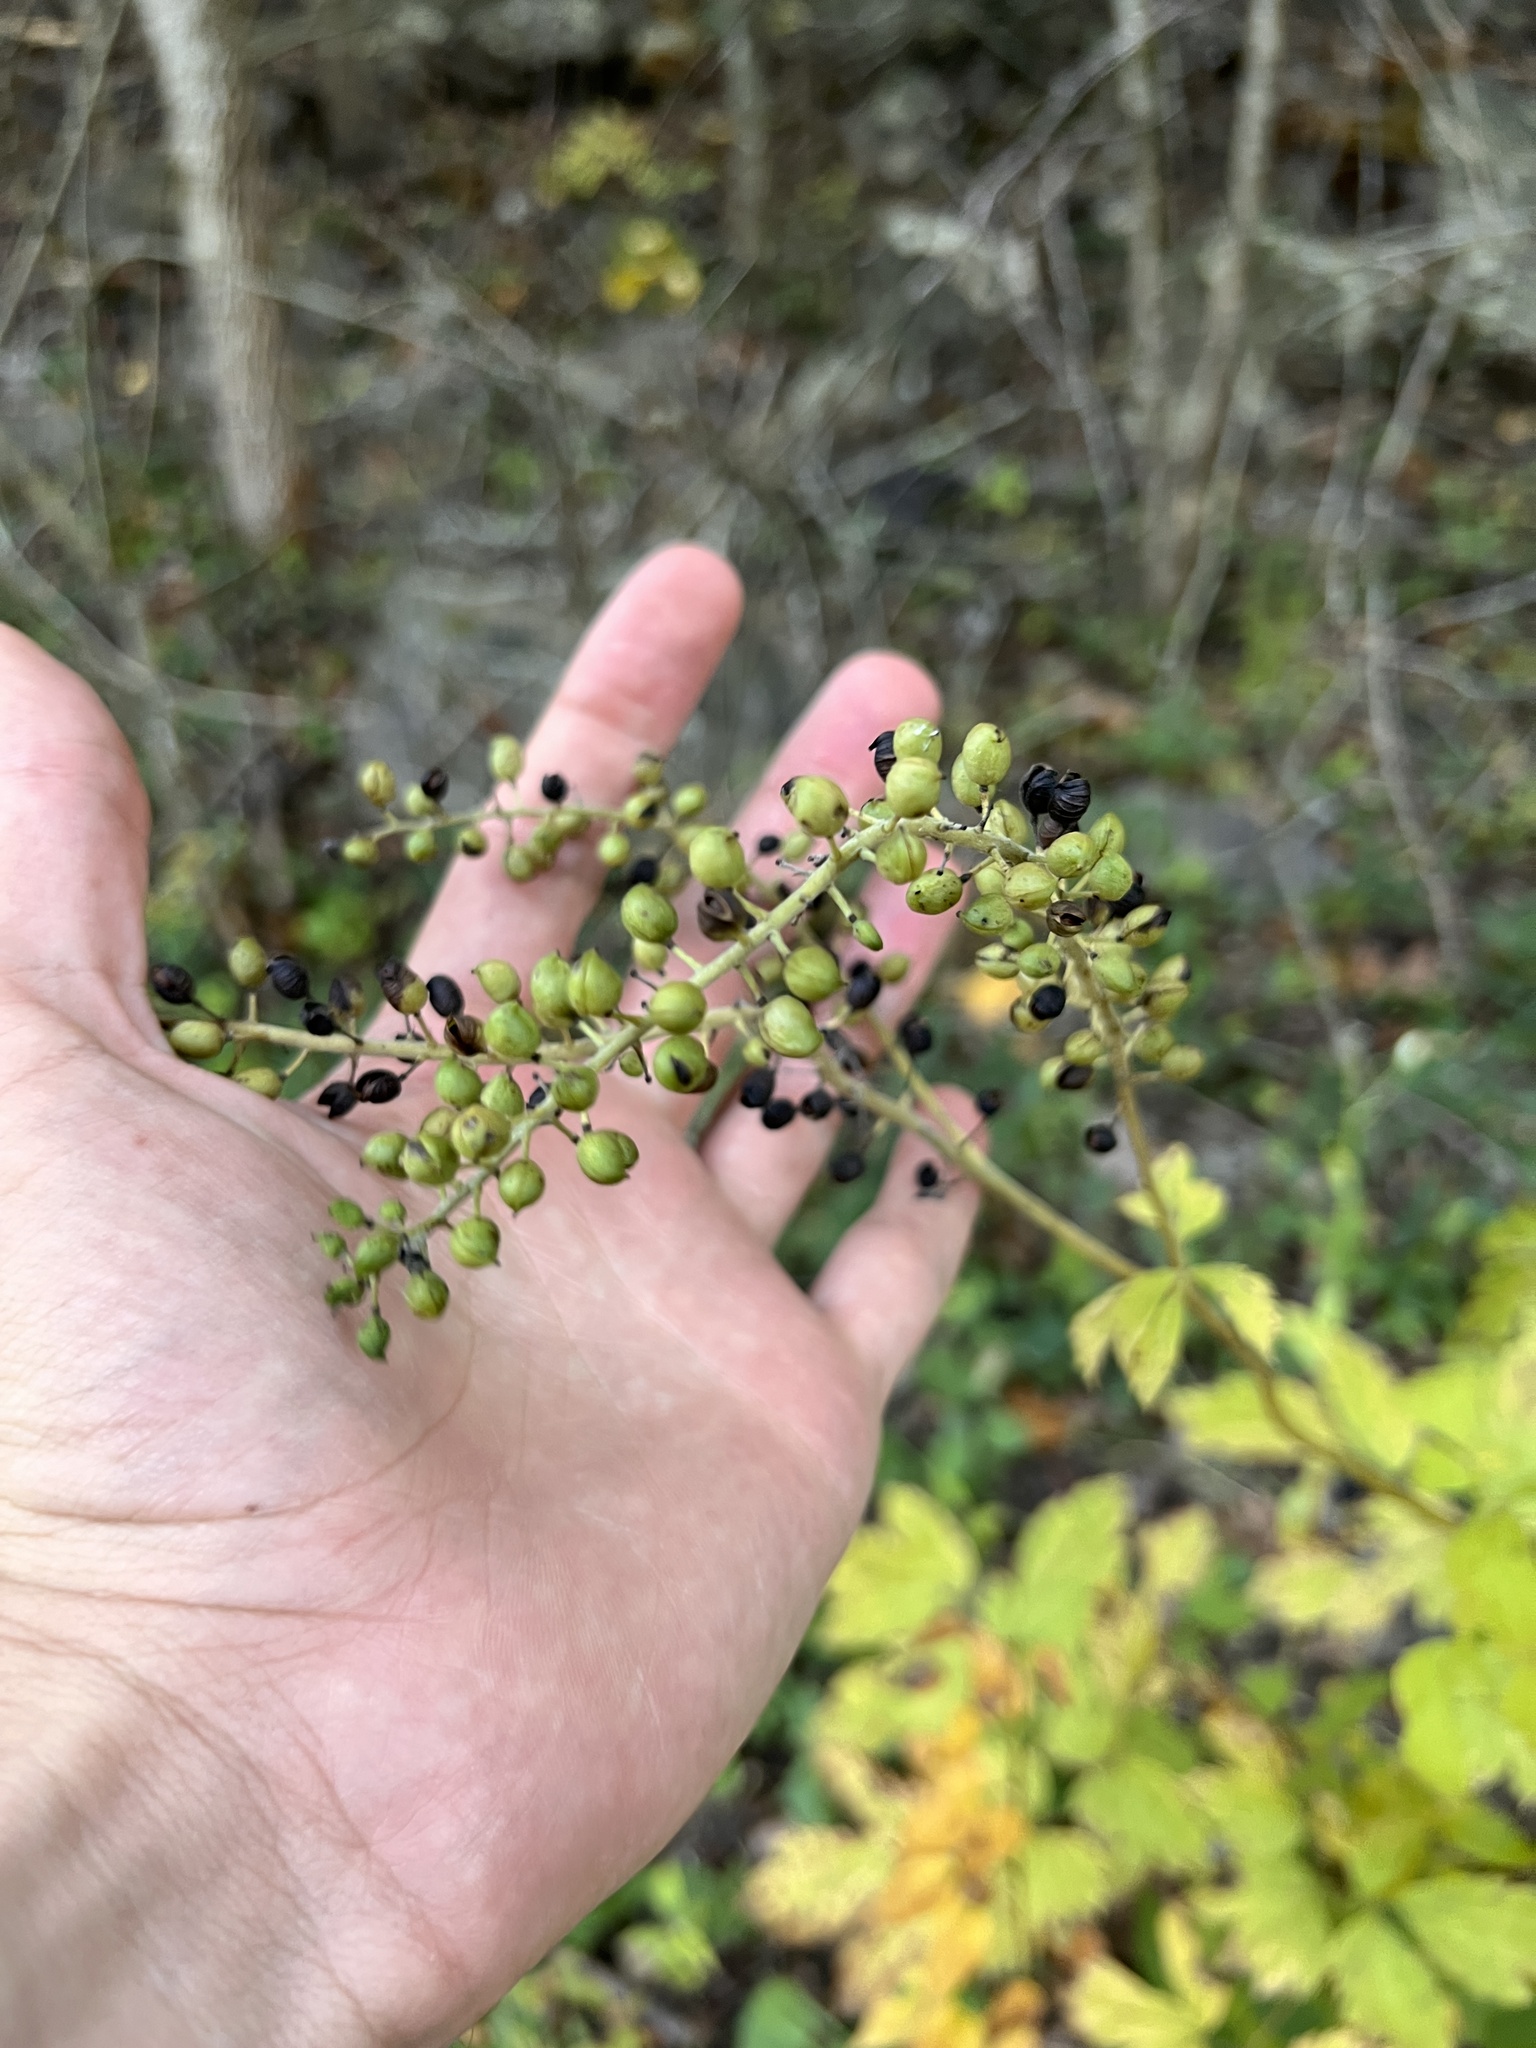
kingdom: Plantae
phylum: Tracheophyta
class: Magnoliopsida
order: Ranunculales
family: Ranunculaceae
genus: Actaea
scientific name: Actaea racemosa
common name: Black cohosh
